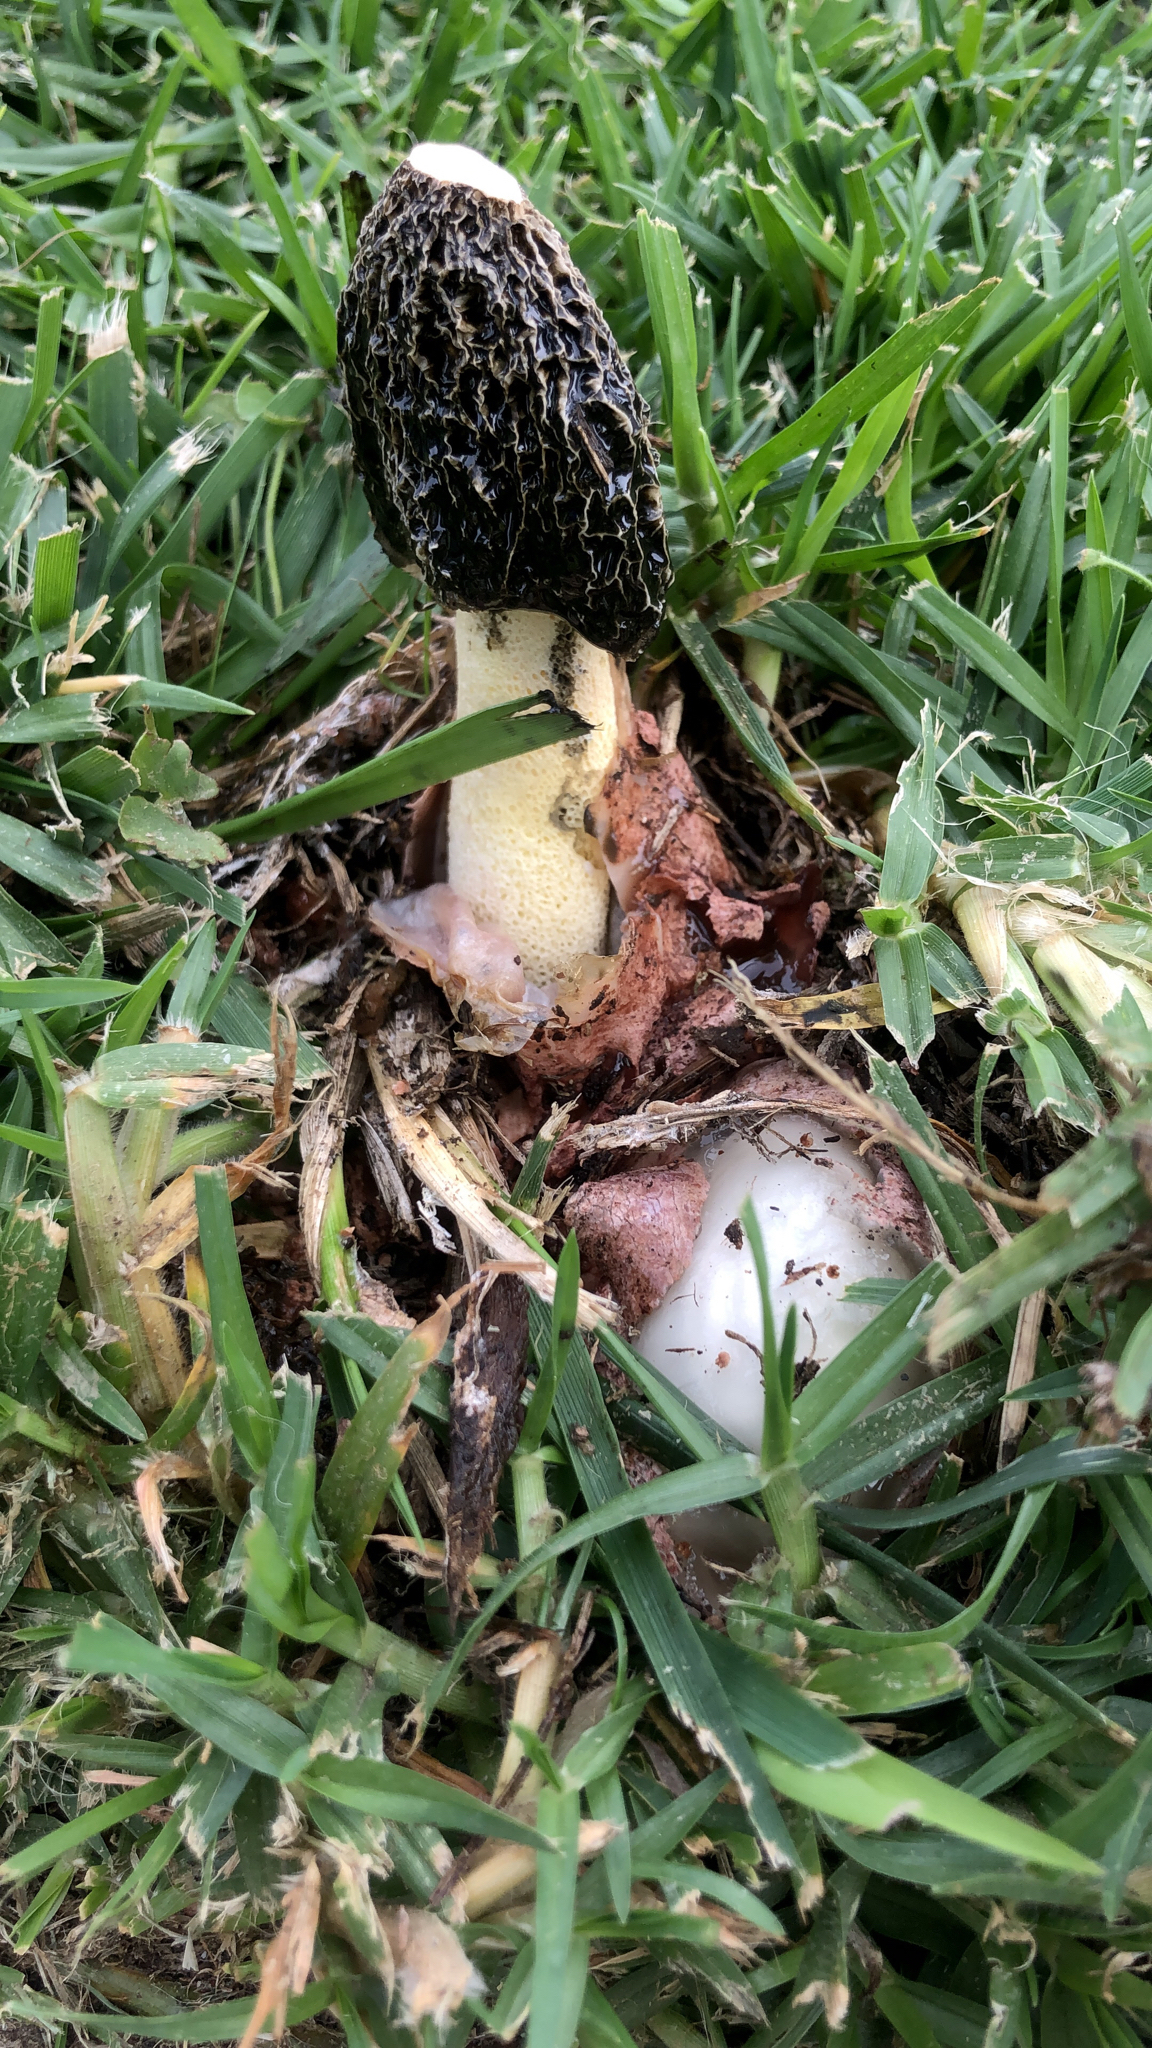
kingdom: Fungi
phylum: Basidiomycota
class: Agaricomycetes
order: Phallales
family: Phallaceae
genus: Phallus
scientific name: Phallus hadriani
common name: Sand stinkhorn
